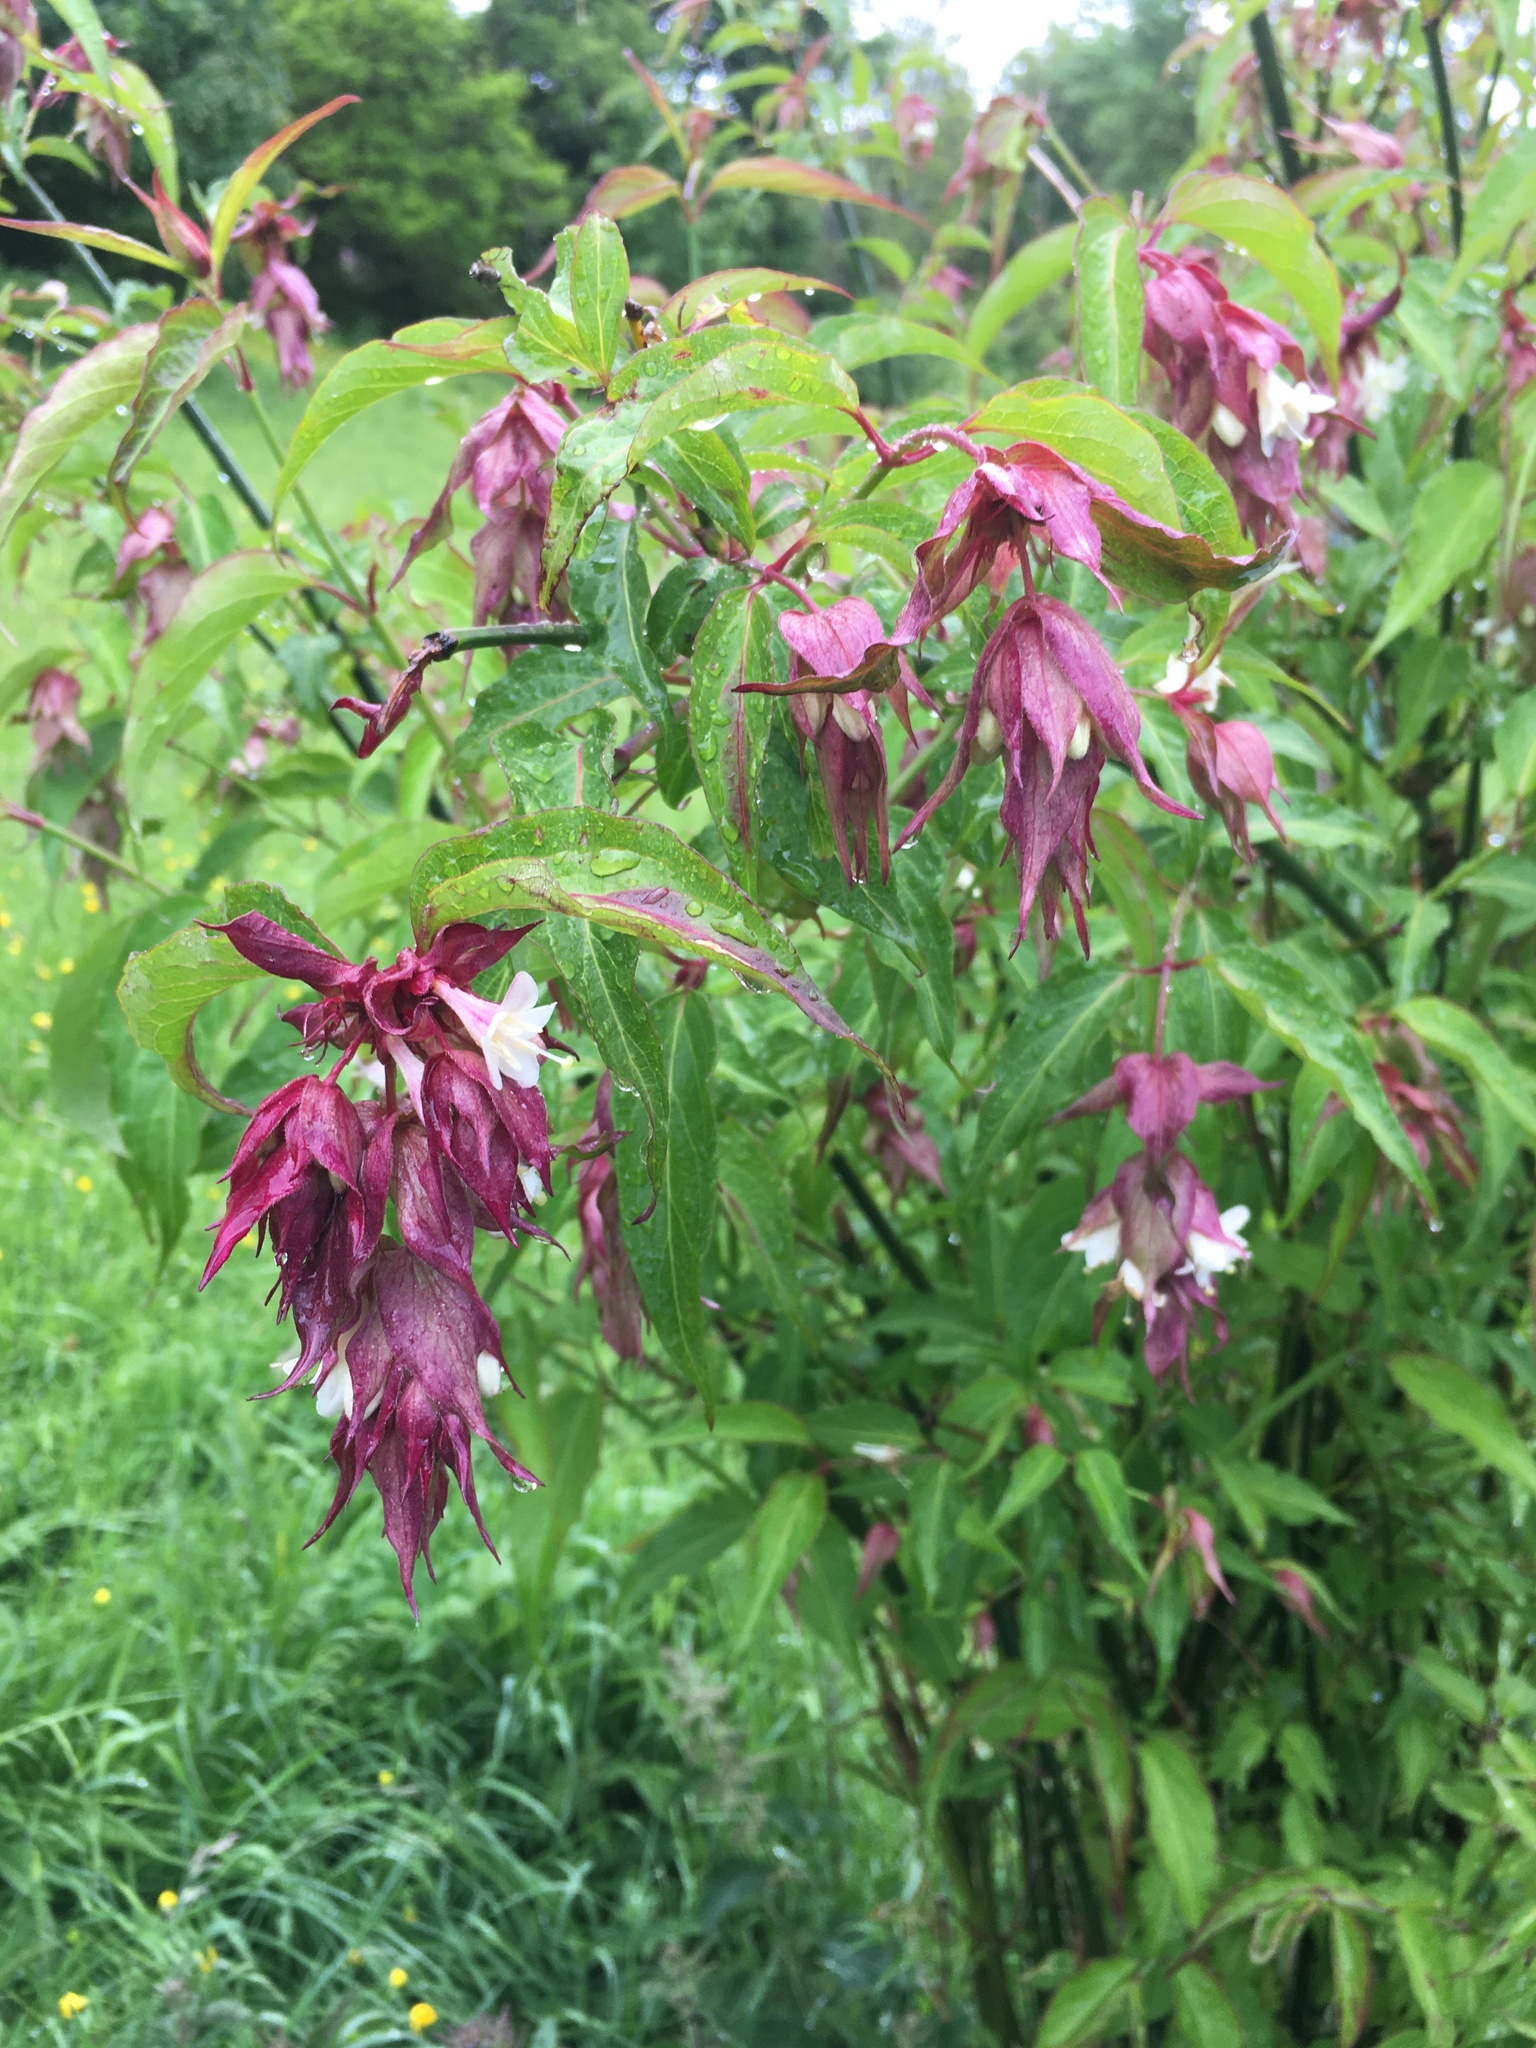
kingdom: Plantae
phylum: Tracheophyta
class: Magnoliopsida
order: Dipsacales
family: Caprifoliaceae
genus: Leycesteria
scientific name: Leycesteria formosa
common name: Himalayan honeysuckle
